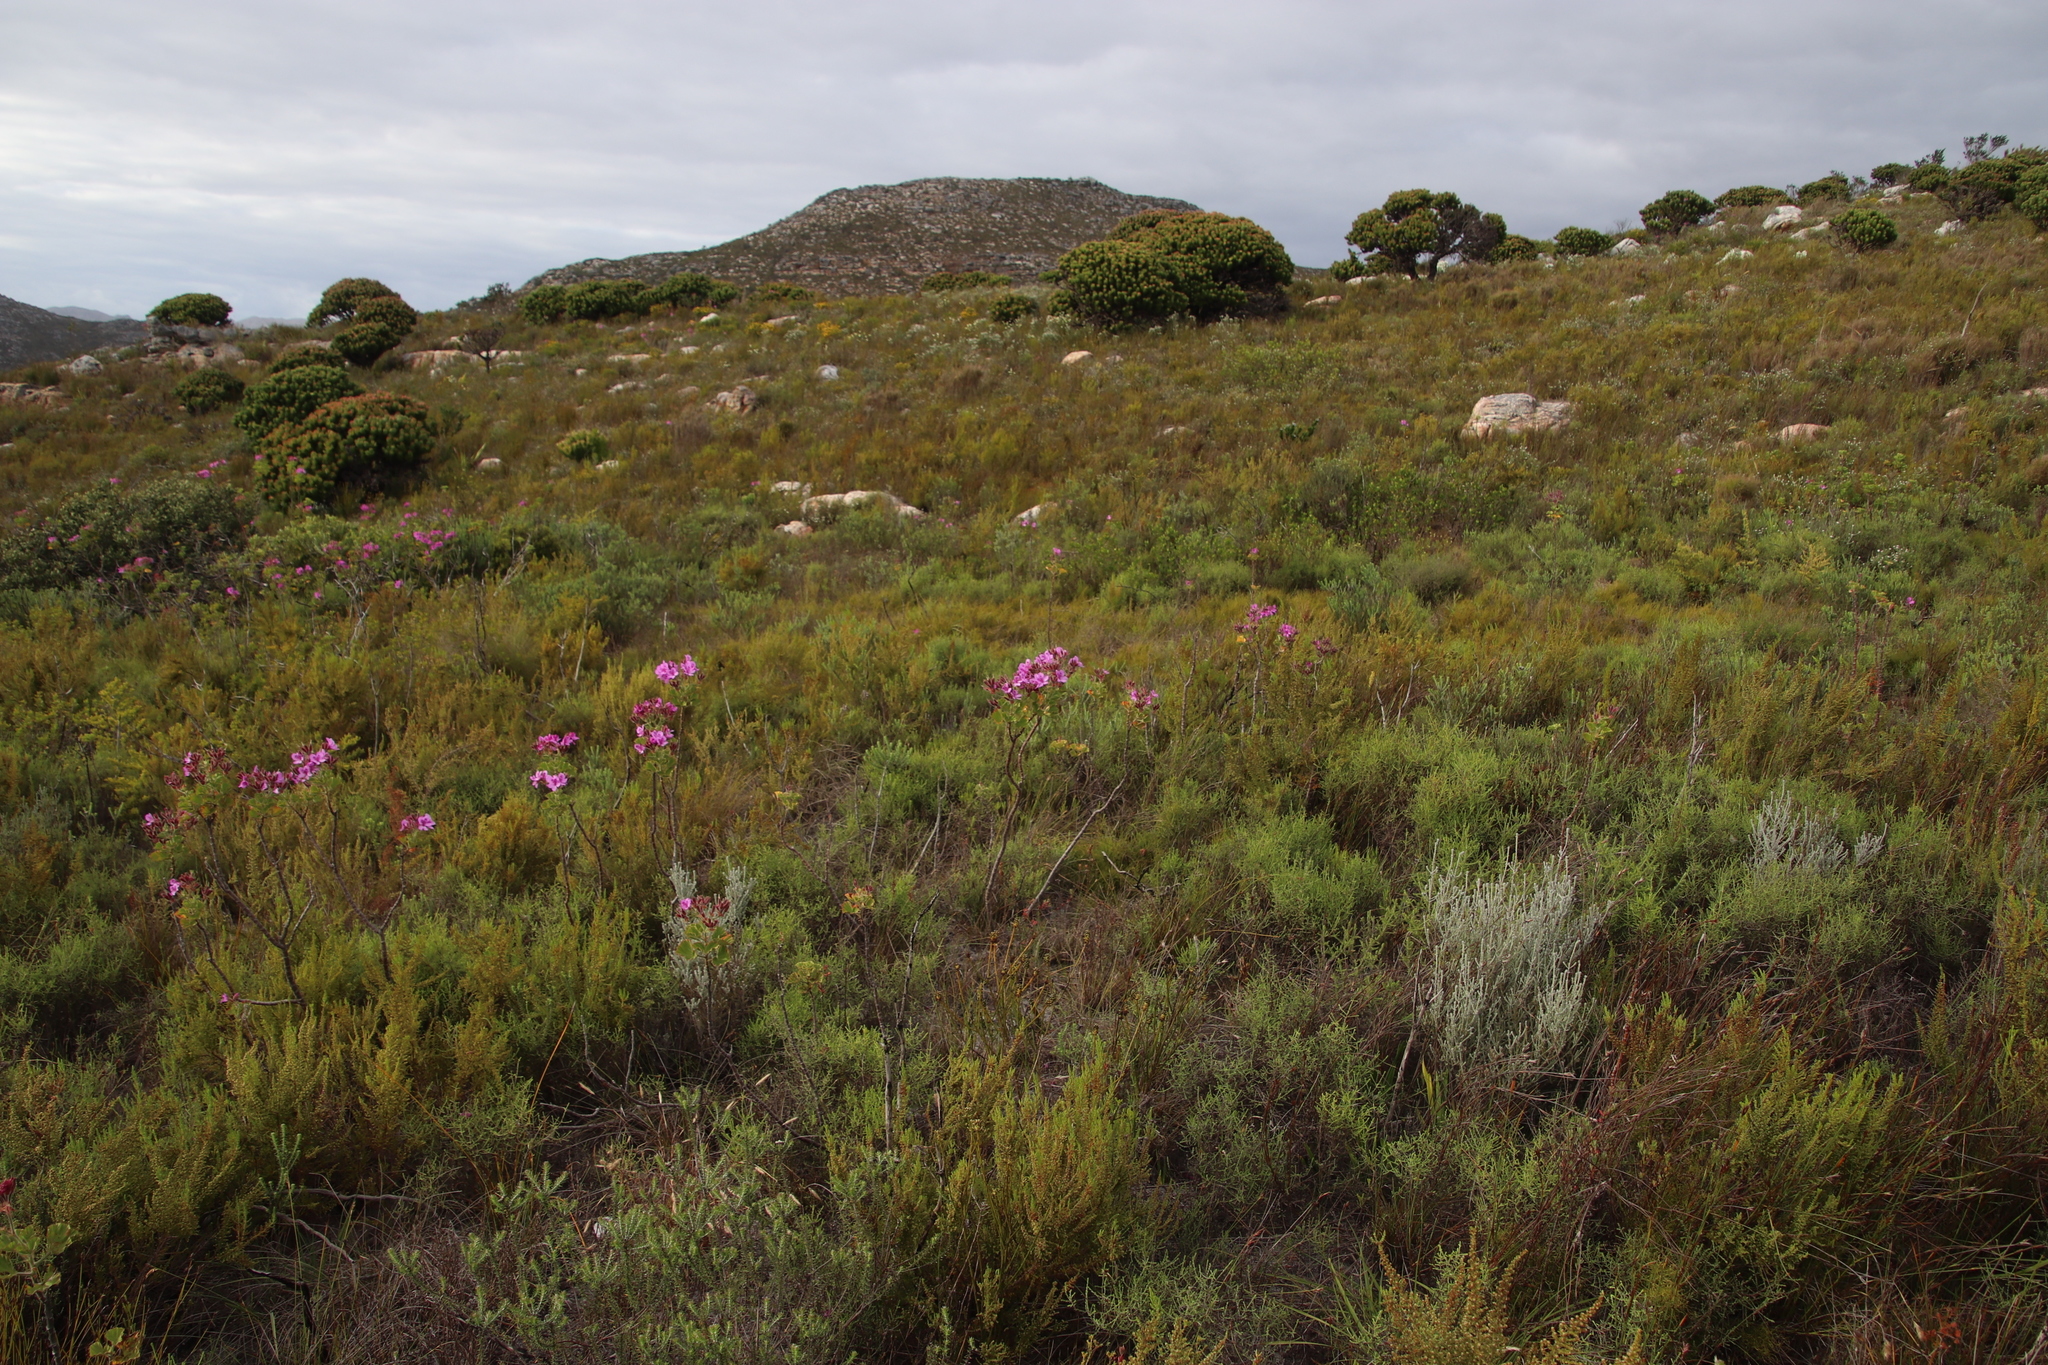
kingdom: Plantae
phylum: Tracheophyta
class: Magnoliopsida
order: Geraniales
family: Geraniaceae
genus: Pelargonium
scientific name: Pelargonium cucullatum
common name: Tree pelargonium
